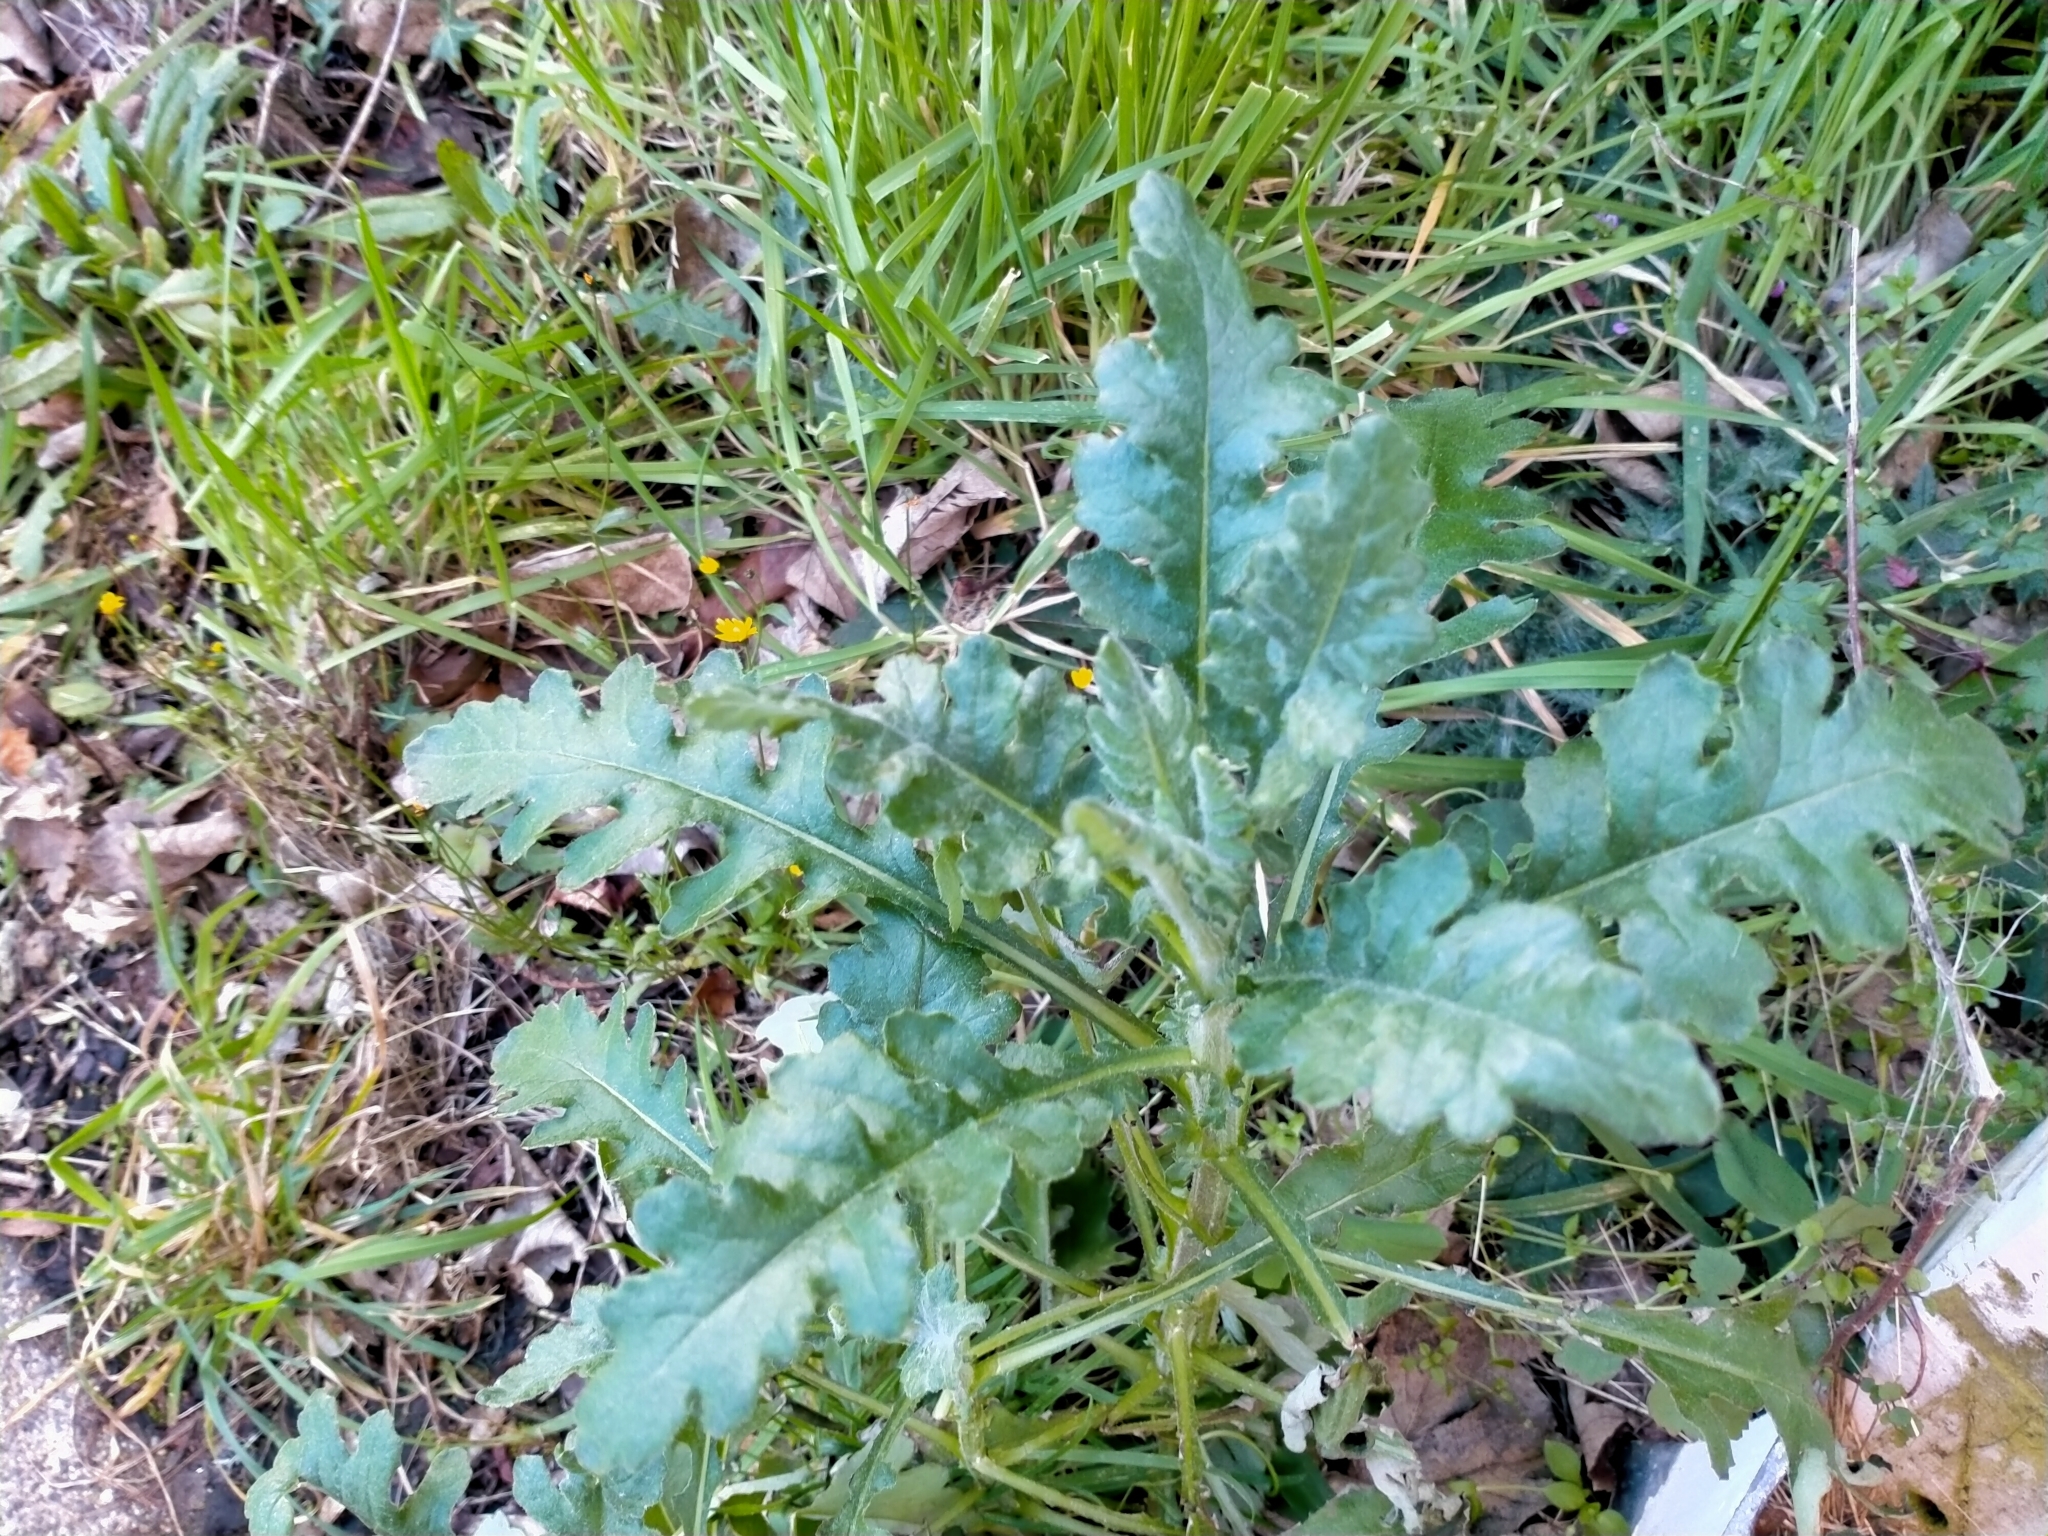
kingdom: Plantae
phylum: Tracheophyta
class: Magnoliopsida
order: Asterales
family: Asteraceae
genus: Senecio
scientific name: Senecio glomeratus
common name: Cutleaf burnweed
